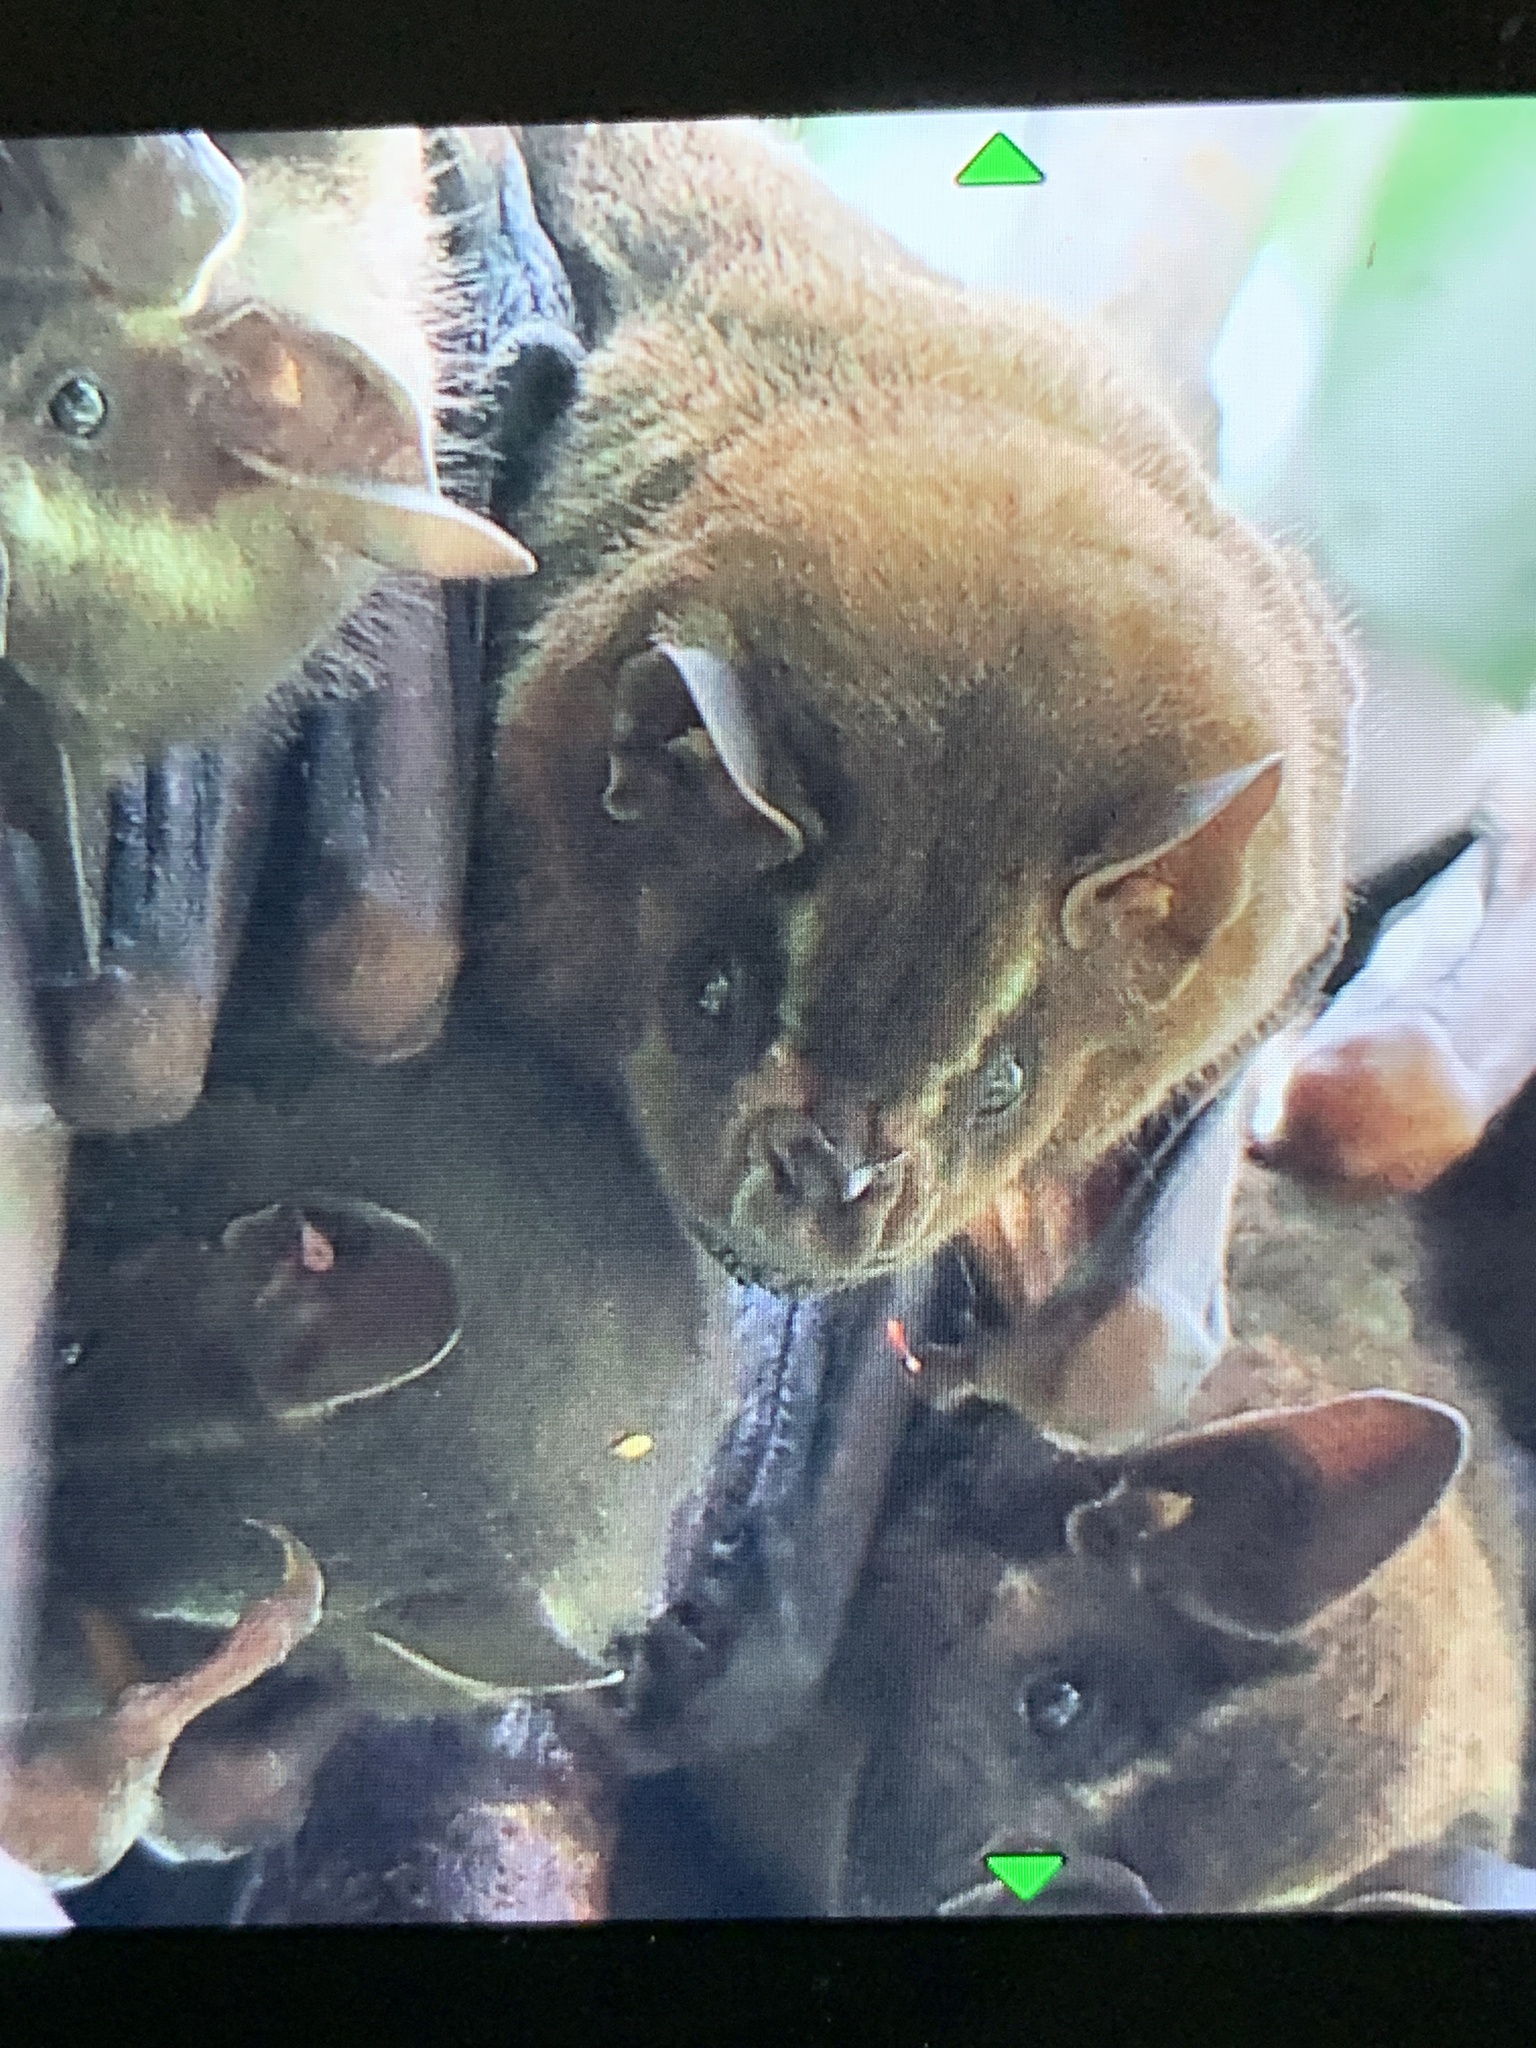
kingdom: Animalia
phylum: Chordata
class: Mammalia
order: Chiroptera
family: Phyllostomidae
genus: Artibeus
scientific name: Artibeus lituratus
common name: Great fruit-eating bat
